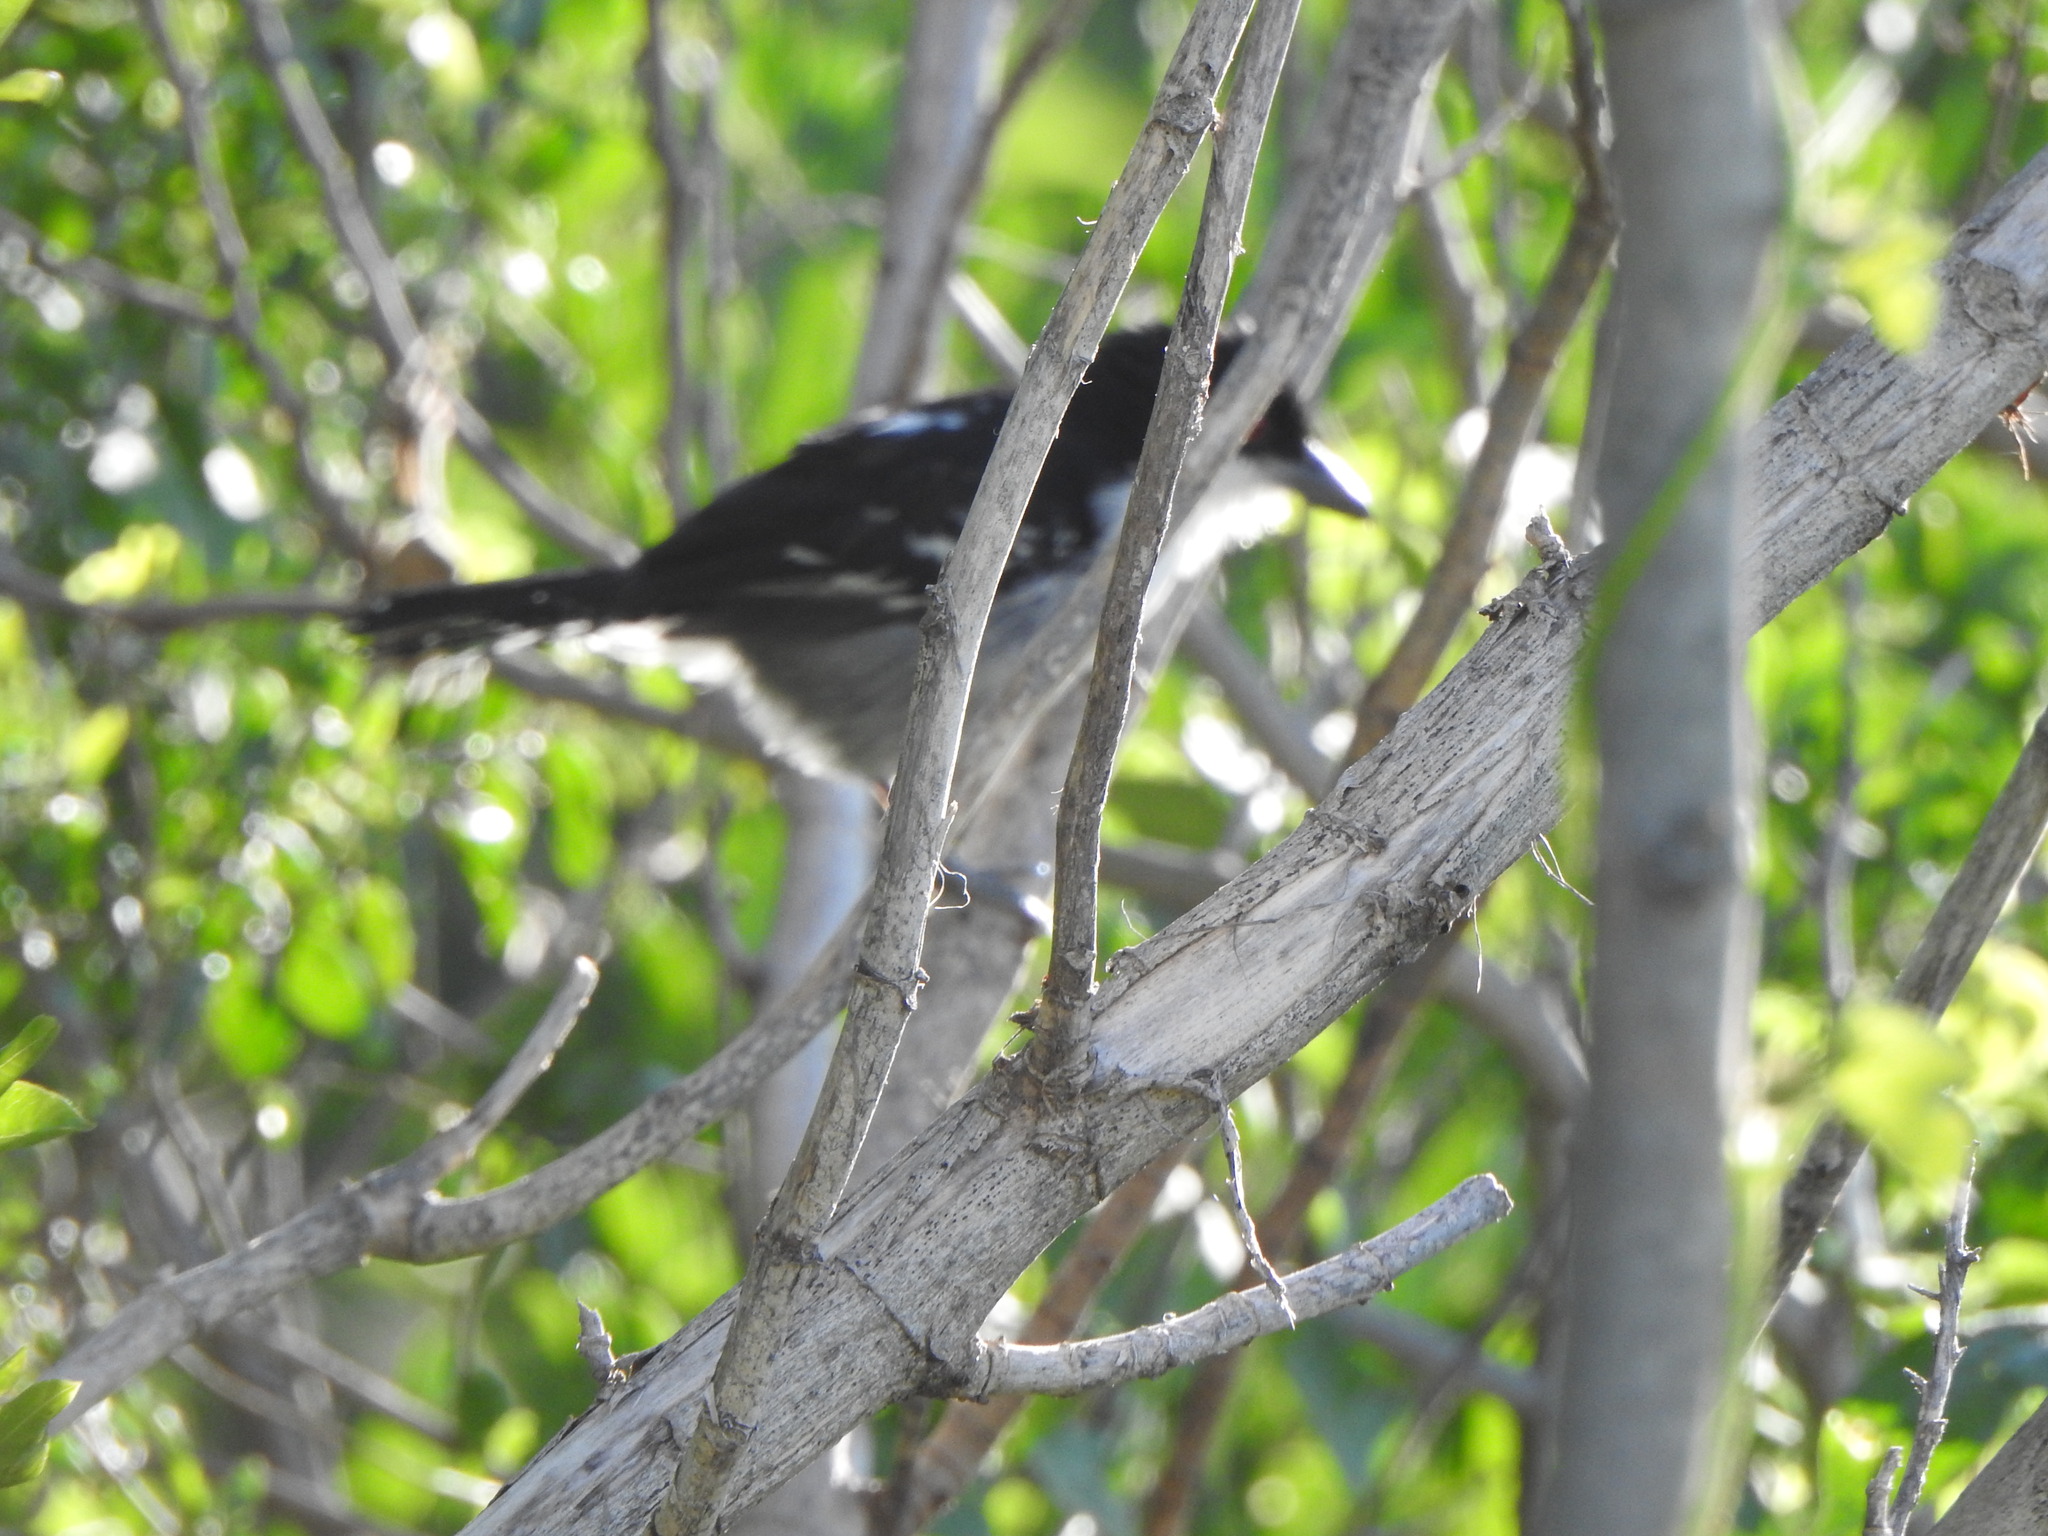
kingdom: Animalia
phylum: Chordata
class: Aves
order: Passeriformes
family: Thamnophilidae
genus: Taraba
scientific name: Taraba major
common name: Great antshrike
